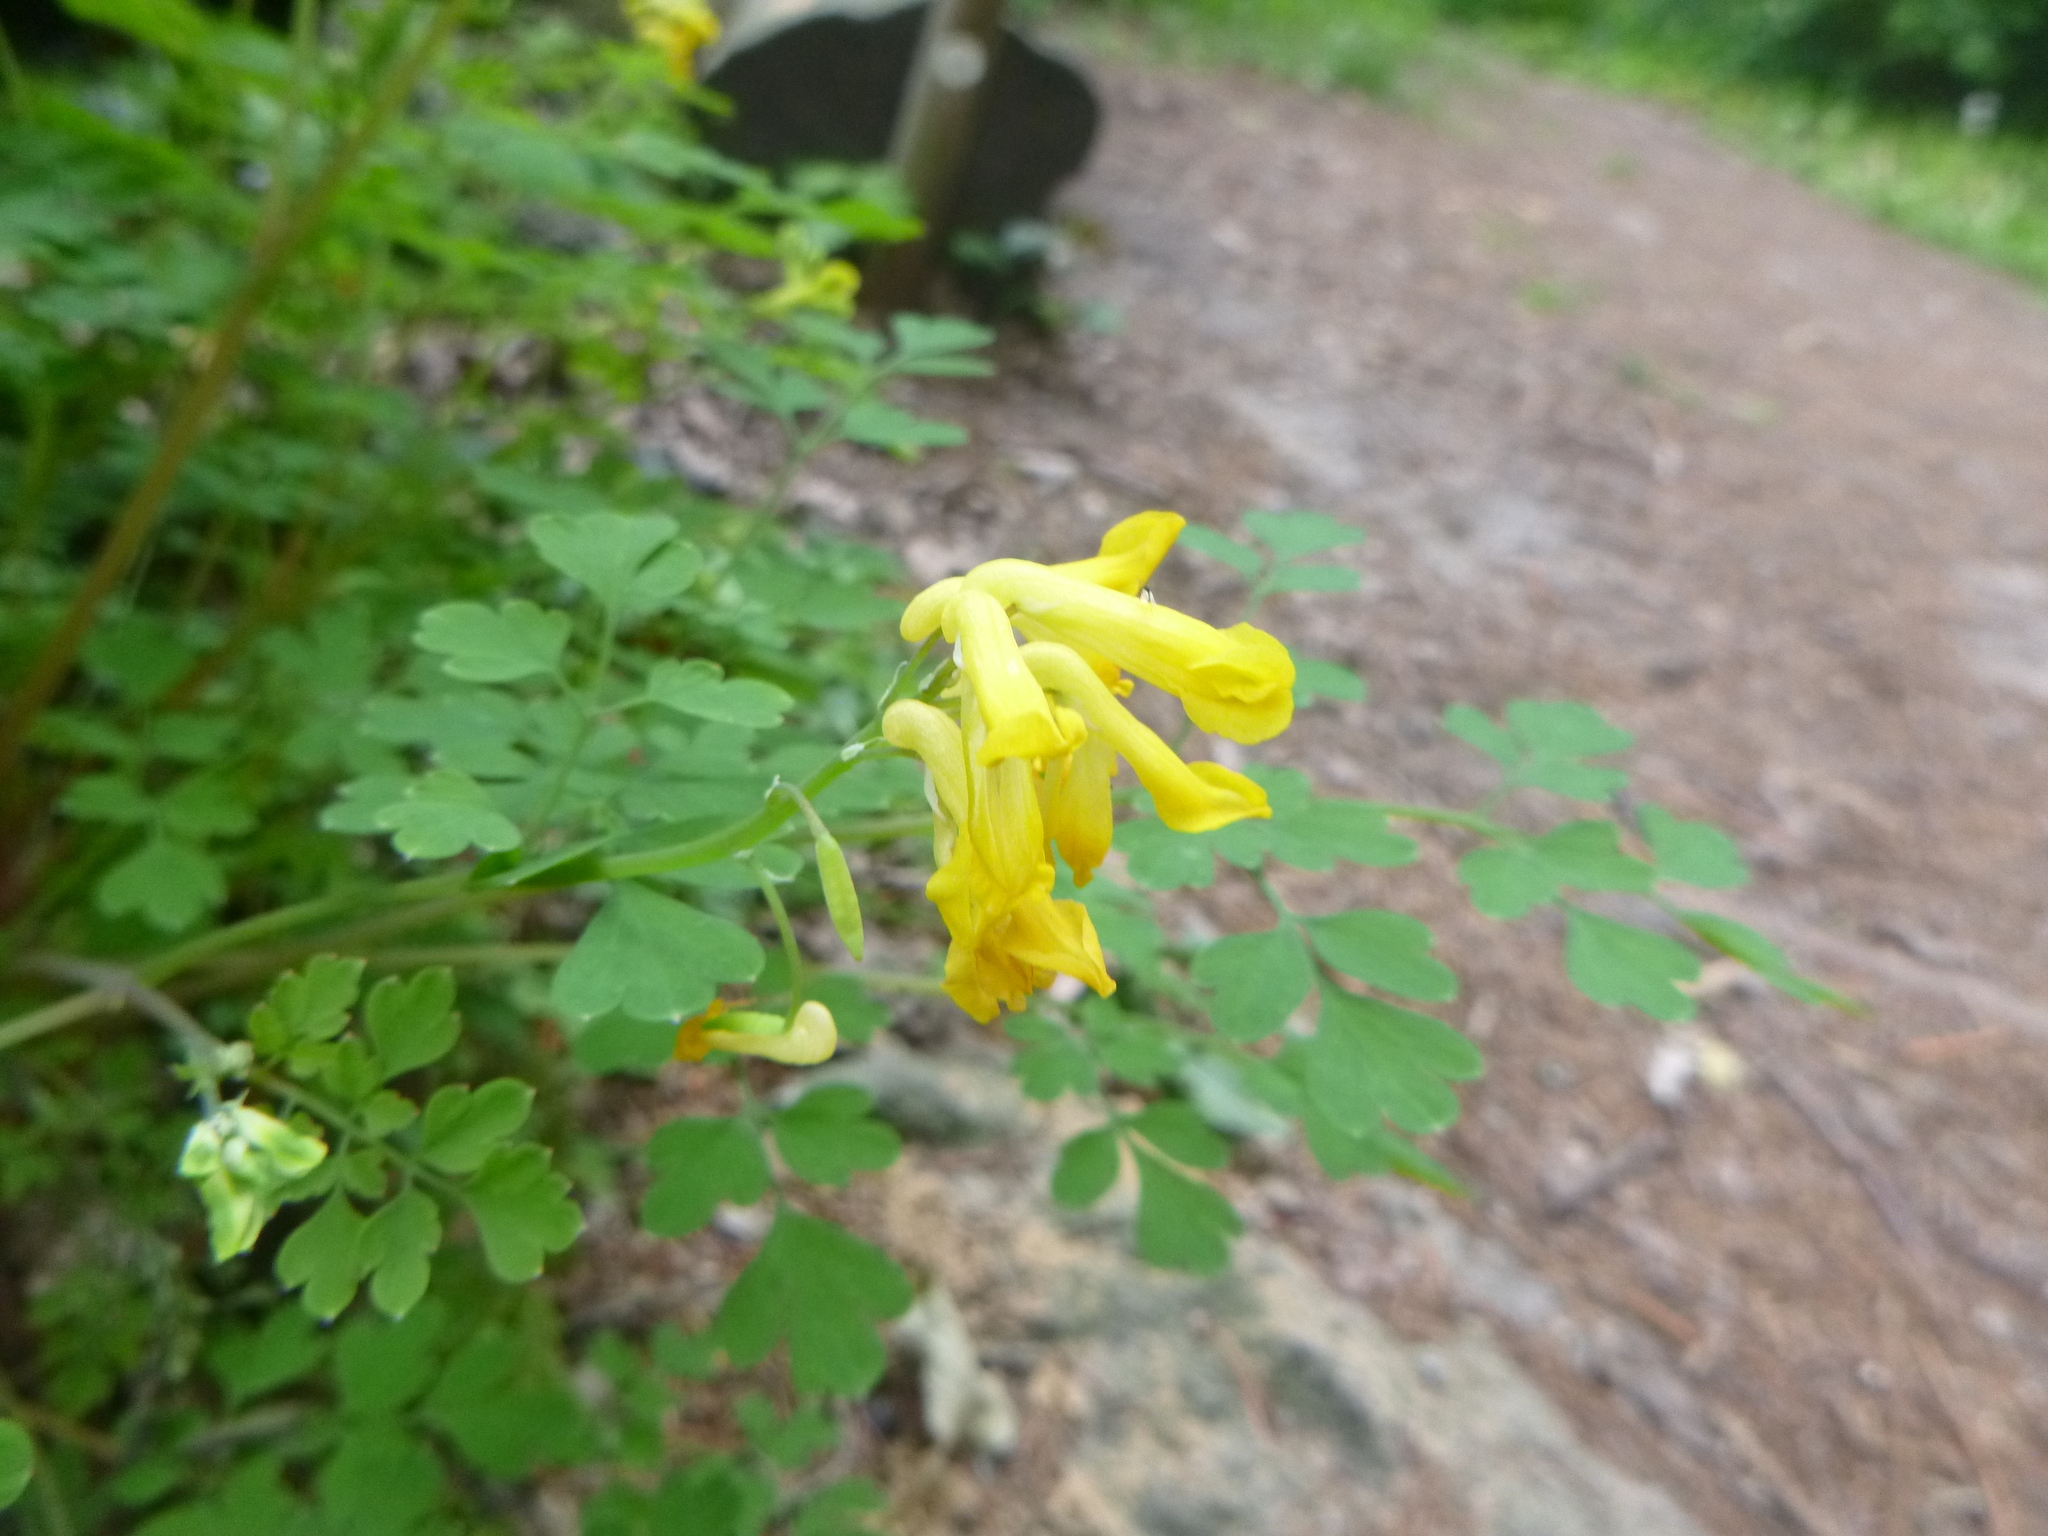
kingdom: Plantae
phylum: Tracheophyta
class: Magnoliopsida
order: Ranunculales
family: Papaveraceae
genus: Pseudofumaria
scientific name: Pseudofumaria lutea
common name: Yellow corydalis
